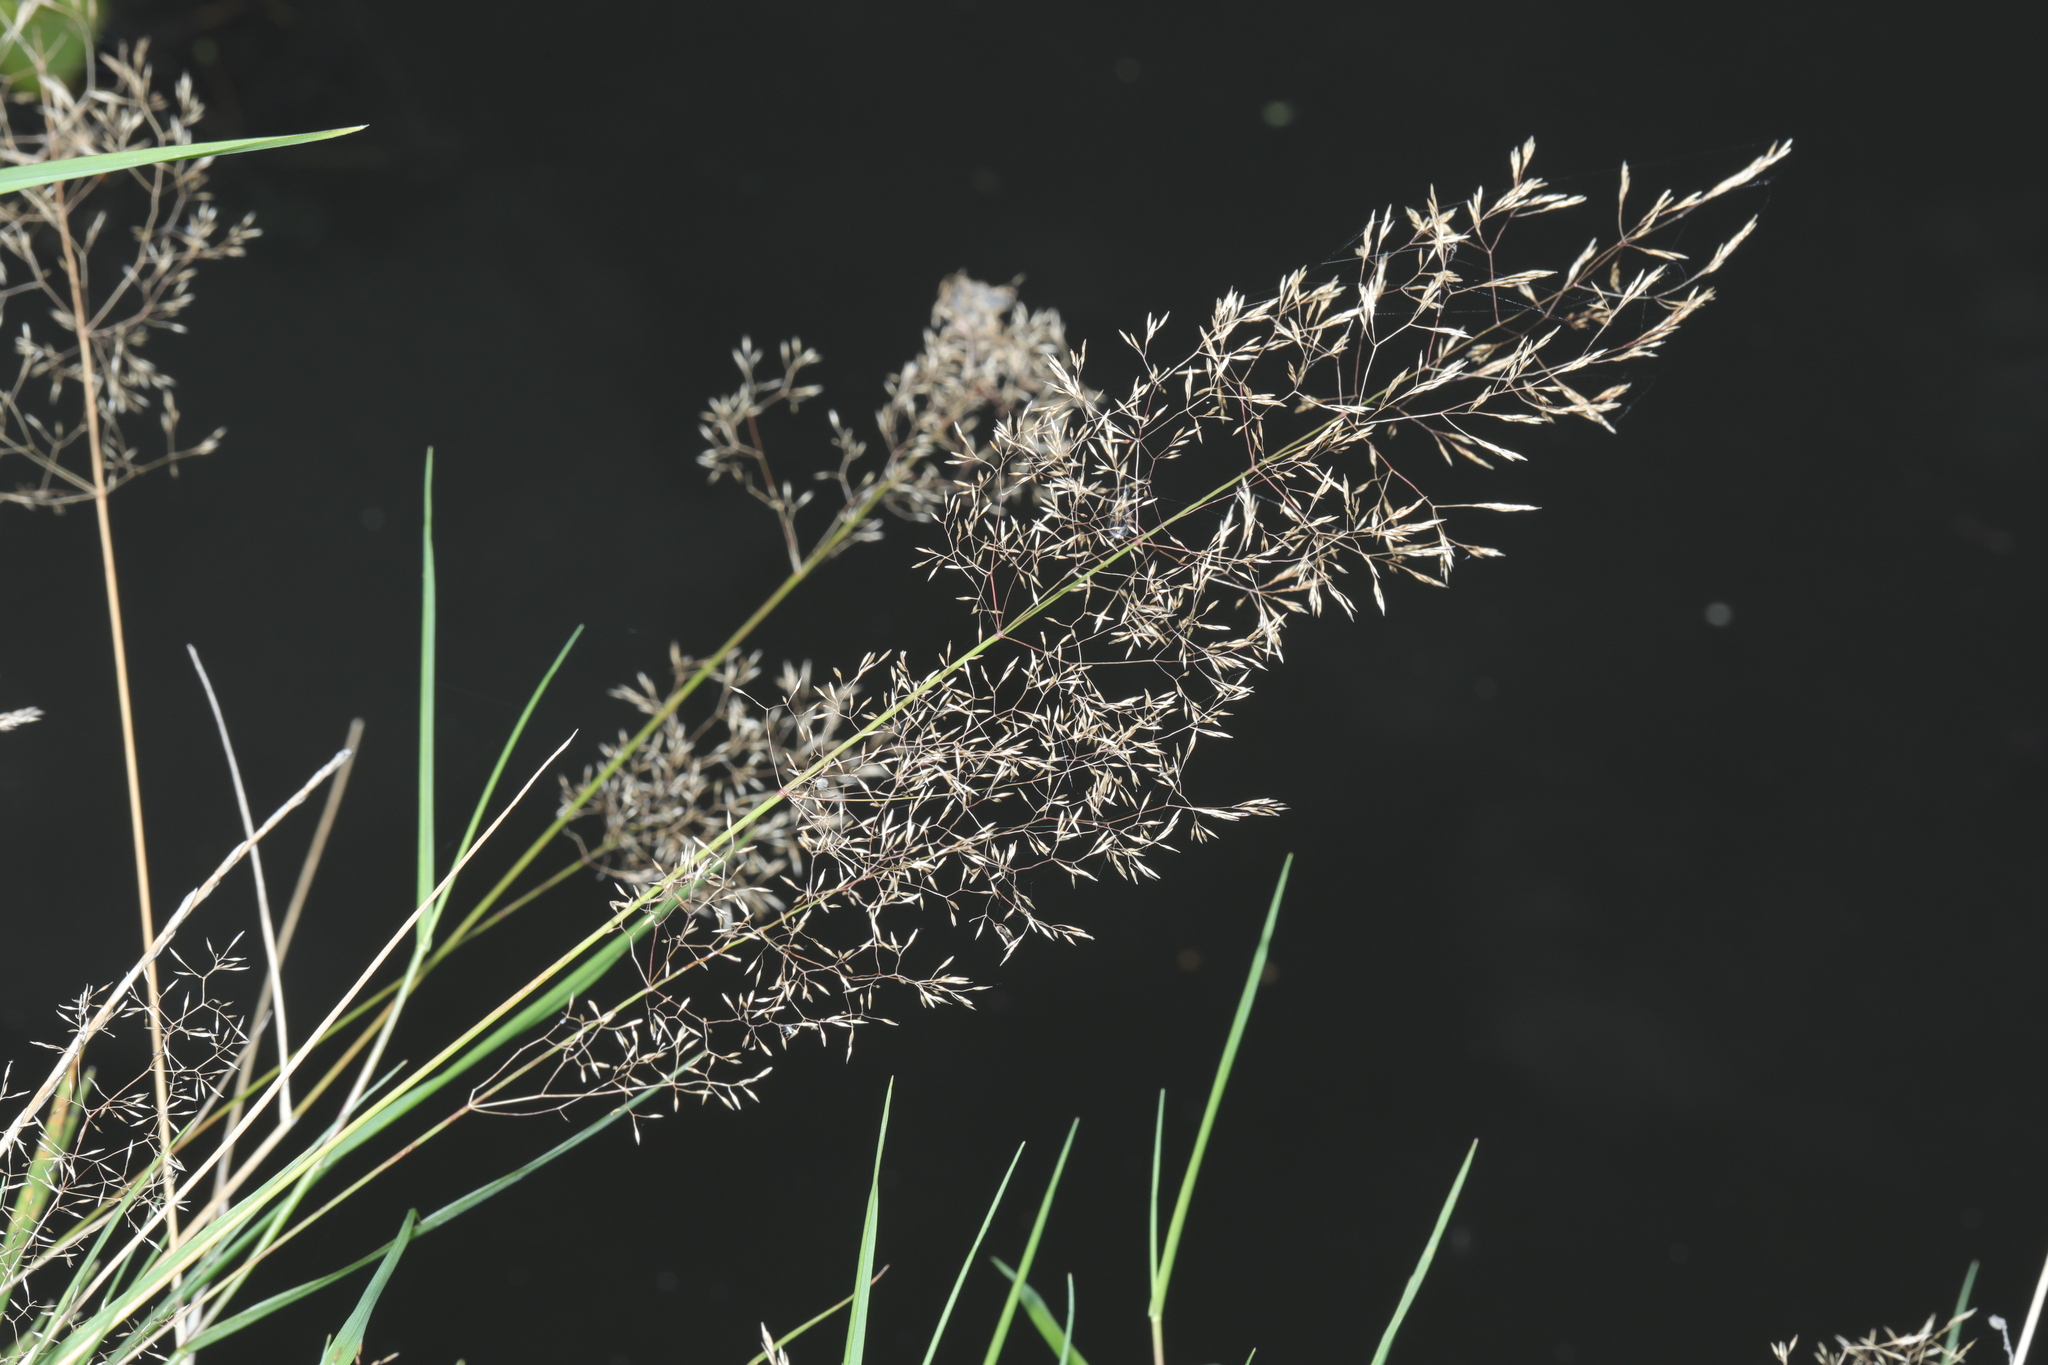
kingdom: Plantae
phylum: Tracheophyta
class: Liliopsida
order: Poales
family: Poaceae
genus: Agrostis
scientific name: Agrostis capillaris
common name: Colonial bentgrass
